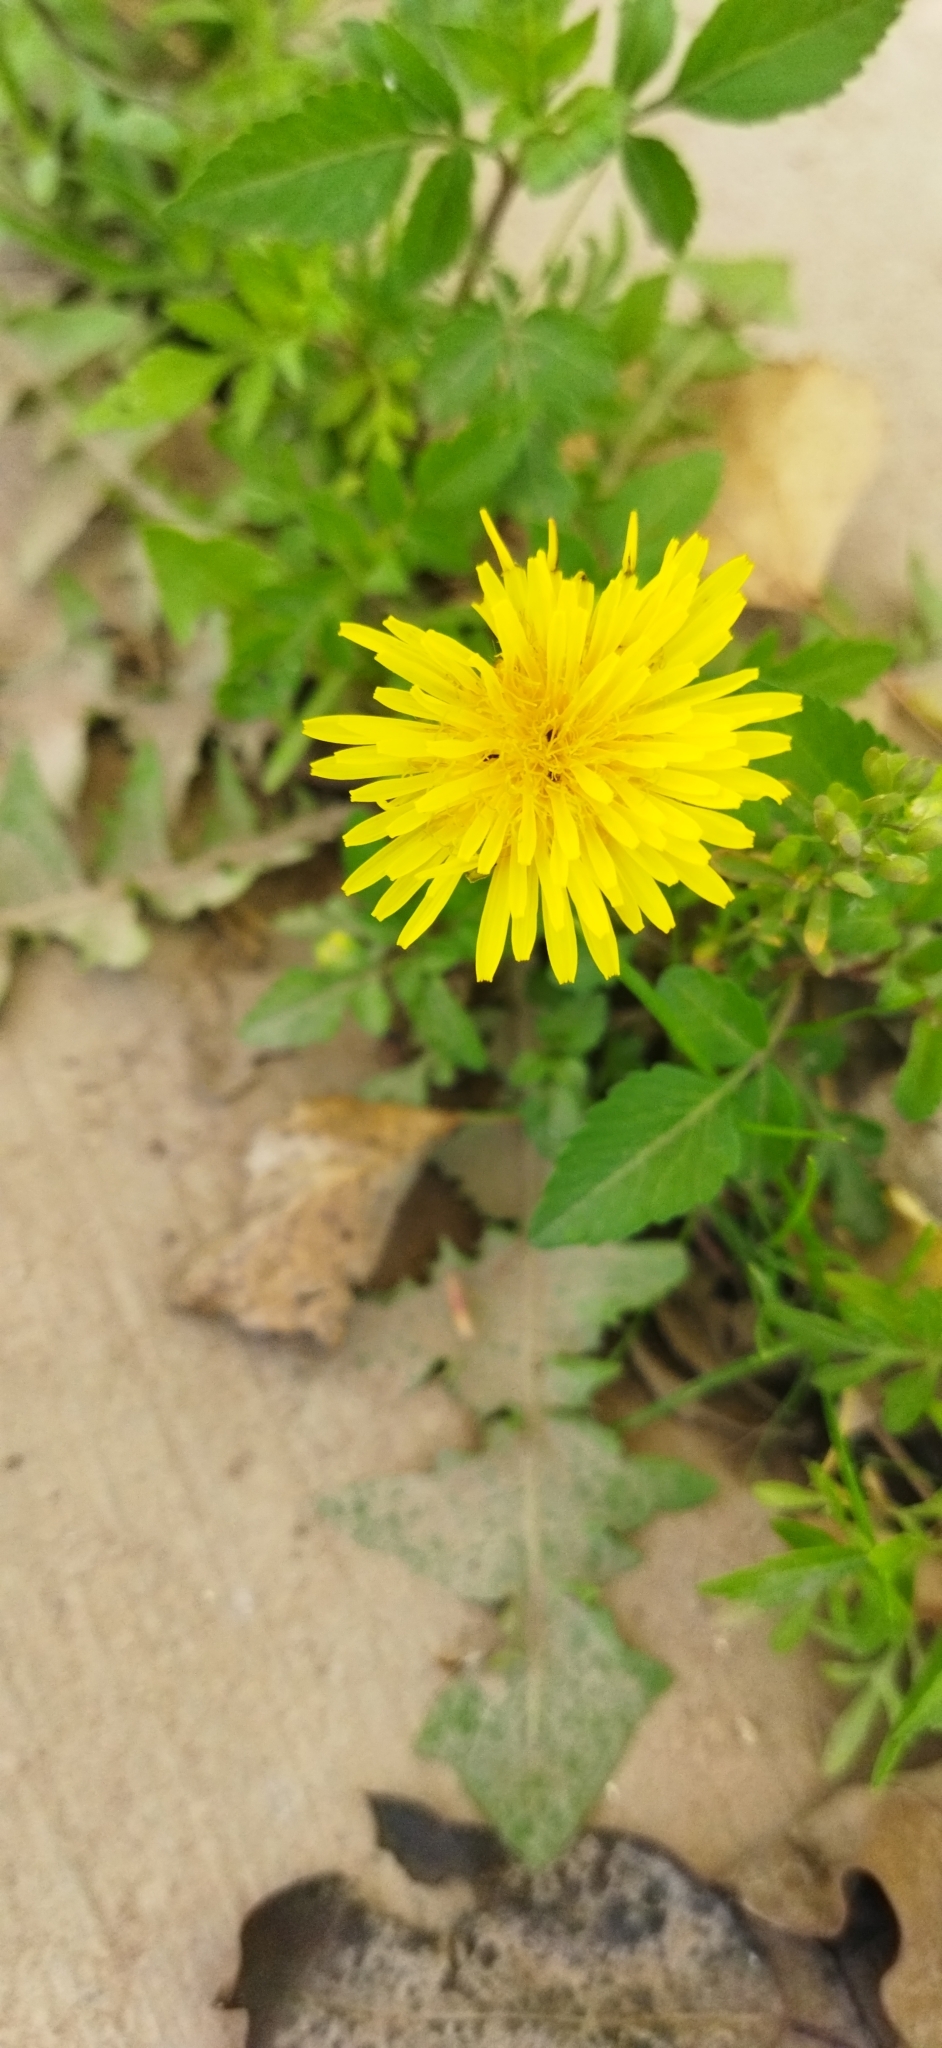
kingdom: Plantae
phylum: Tracheophyta
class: Magnoliopsida
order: Asterales
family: Asteraceae
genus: Taraxacum
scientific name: Taraxacum officinale
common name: Common dandelion
